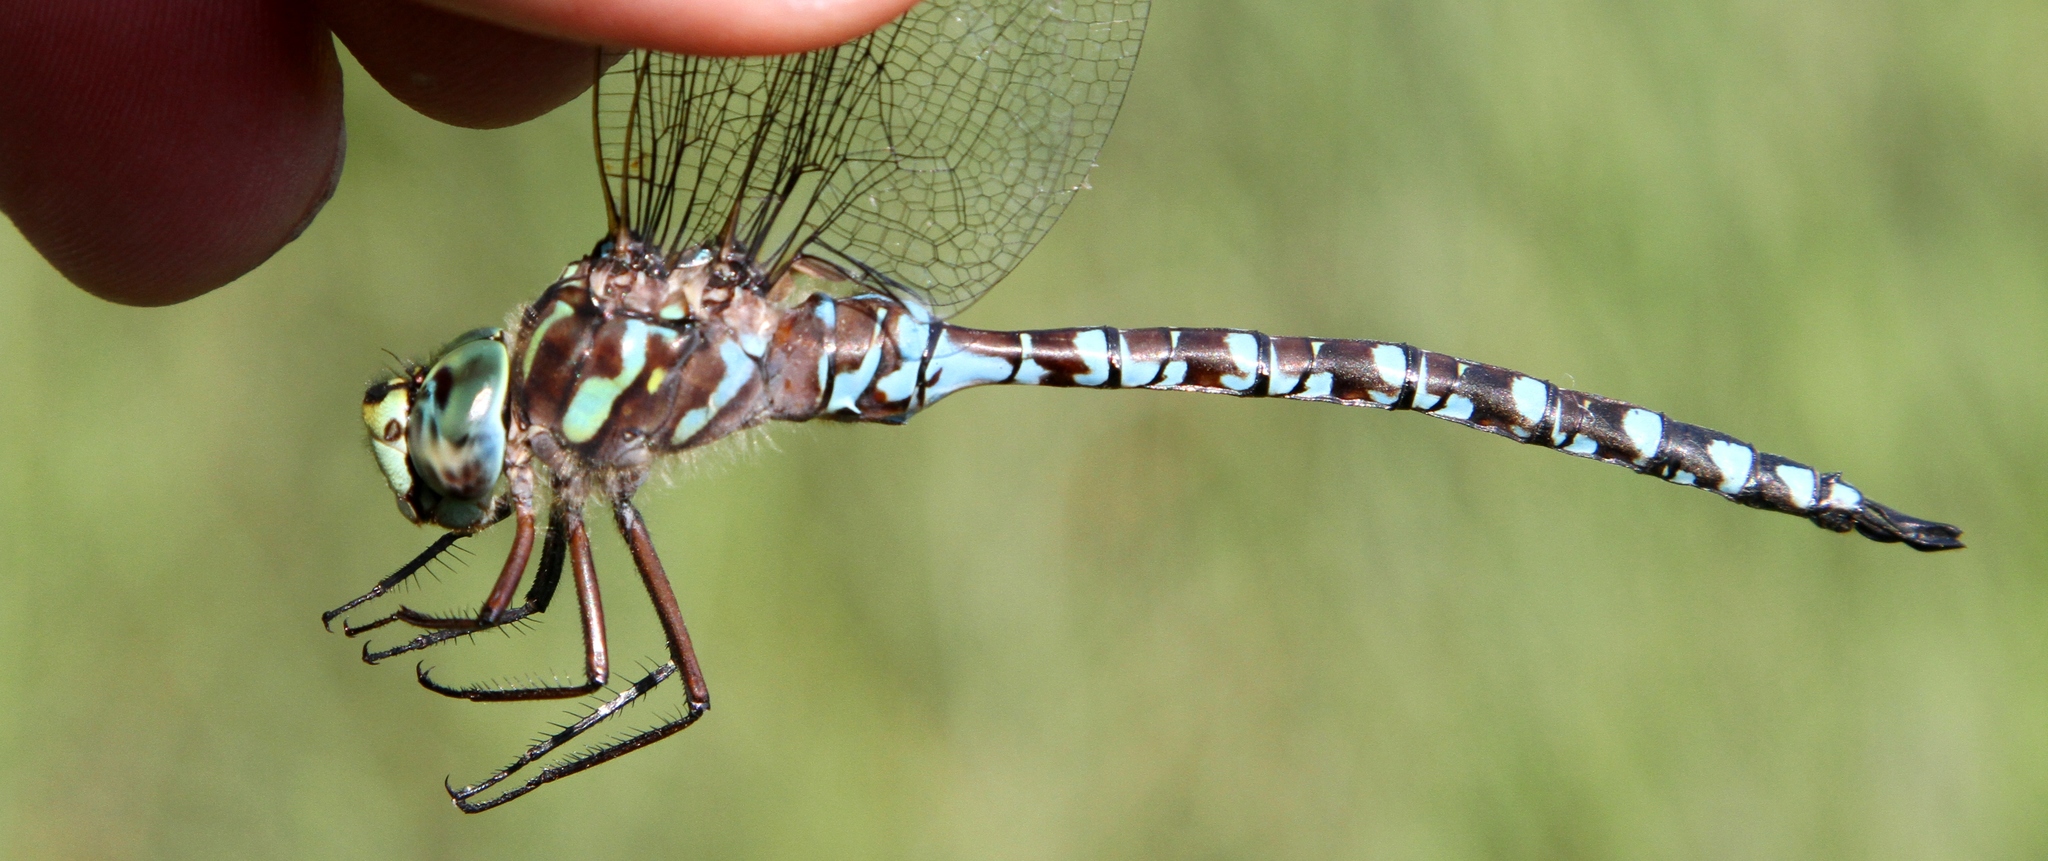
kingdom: Animalia
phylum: Arthropoda
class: Insecta
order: Odonata
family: Aeshnidae
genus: Aeshna
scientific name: Aeshna canadensis
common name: Canada darner
